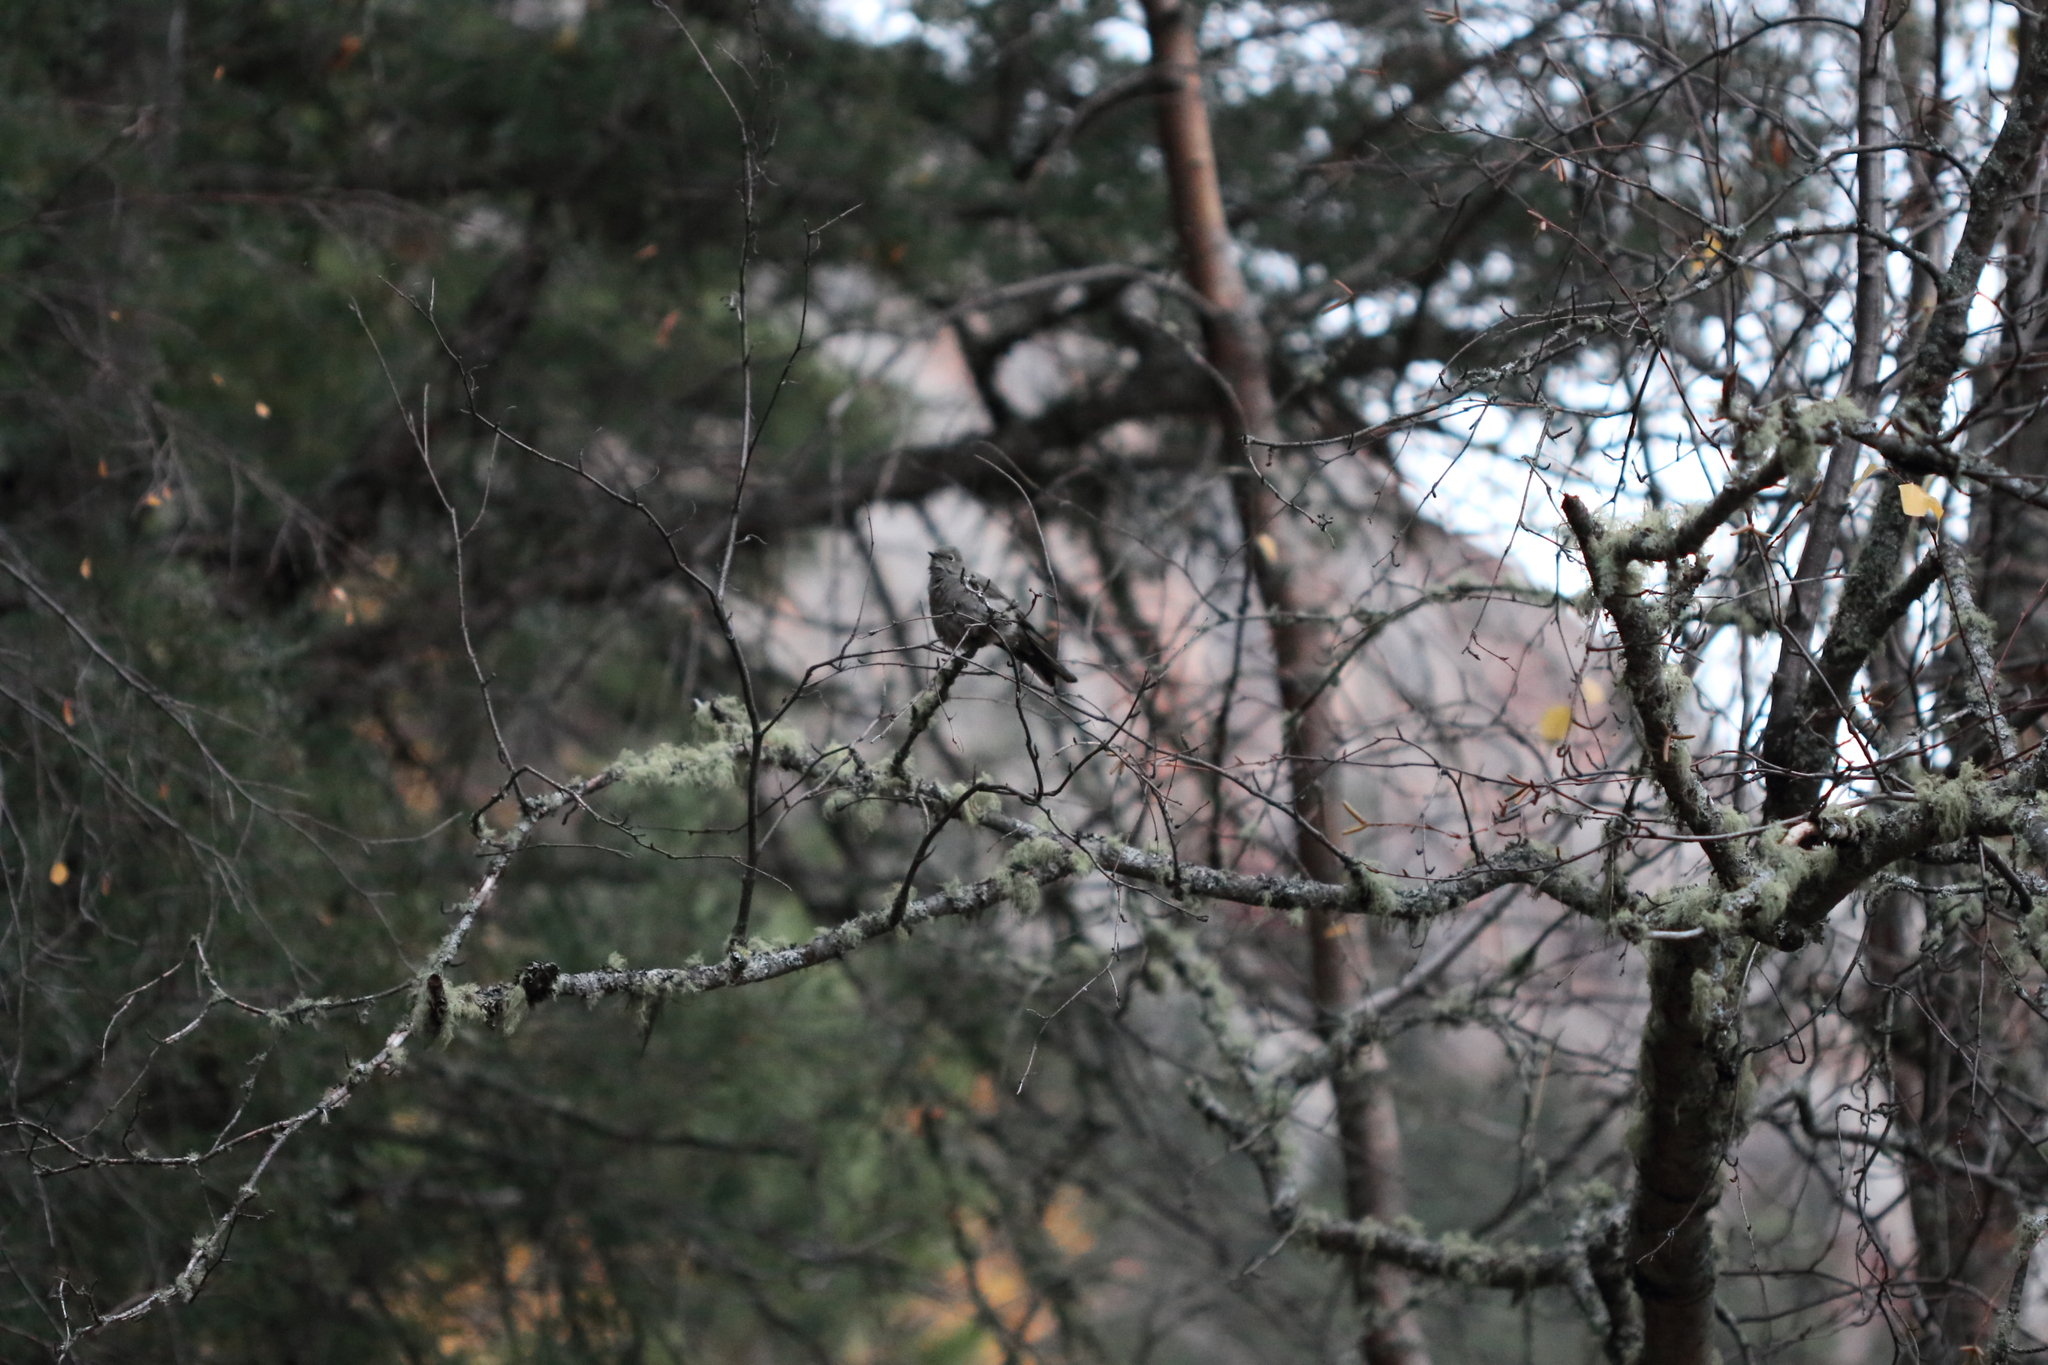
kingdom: Animalia
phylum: Chordata
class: Aves
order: Passeriformes
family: Turdidae
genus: Myadestes
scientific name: Myadestes townsendi
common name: Townsend's solitaire
